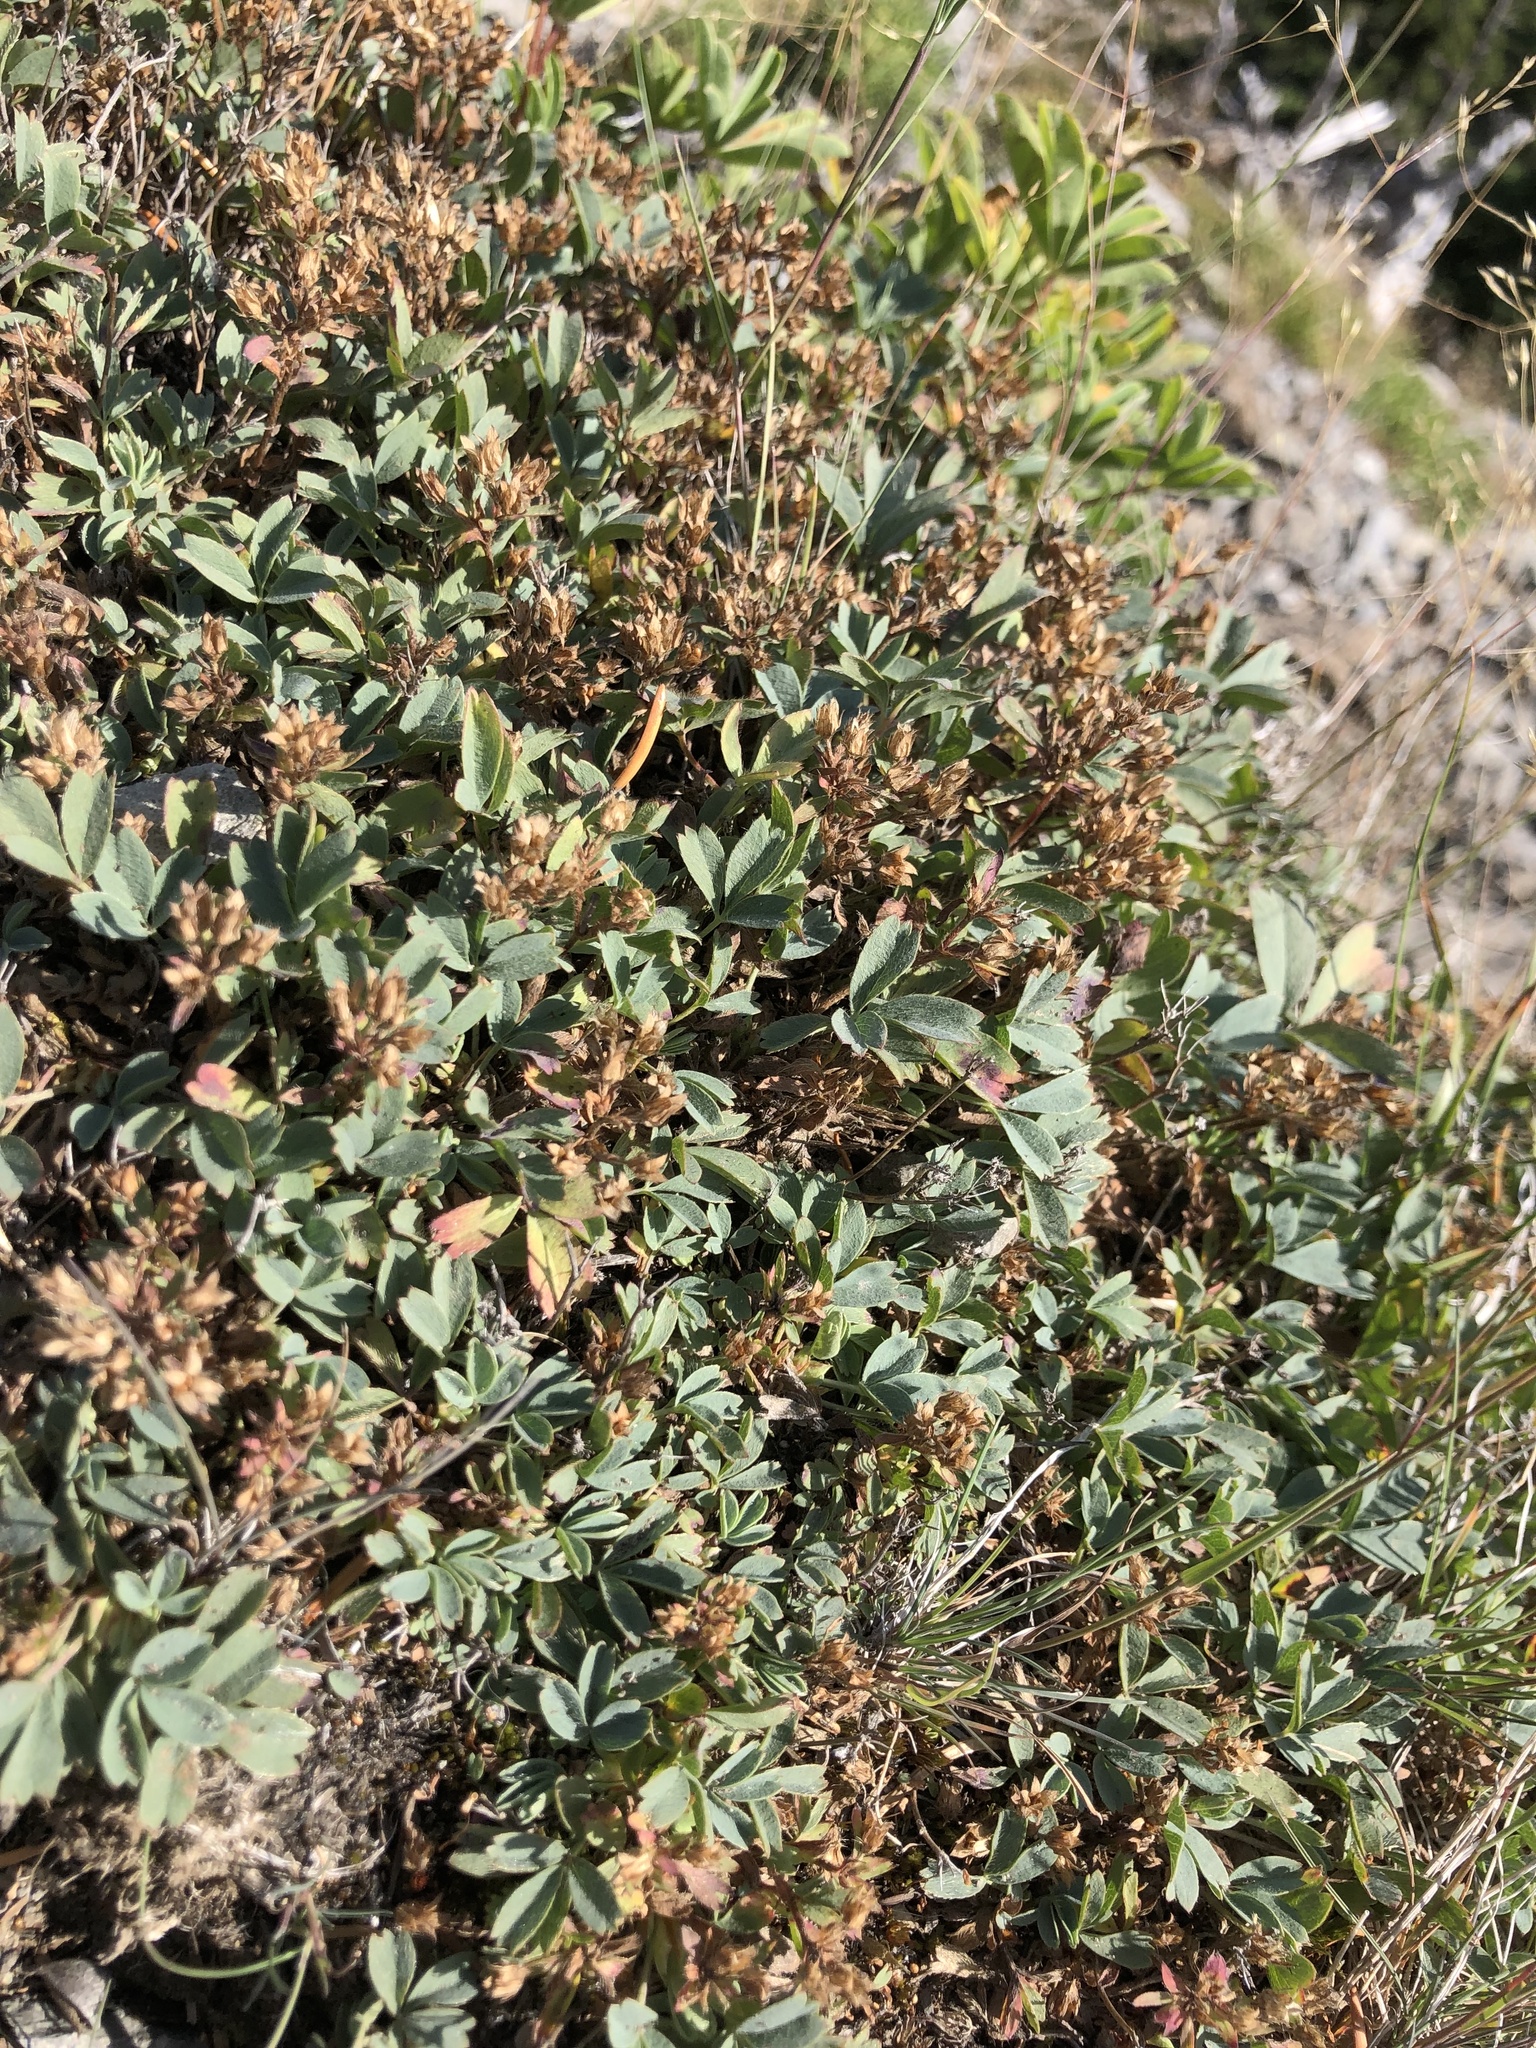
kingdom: Plantae
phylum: Tracheophyta
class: Magnoliopsida
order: Rosales
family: Rosaceae
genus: Sibbaldia
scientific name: Sibbaldia procumbens
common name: Creeping sibbaldia
